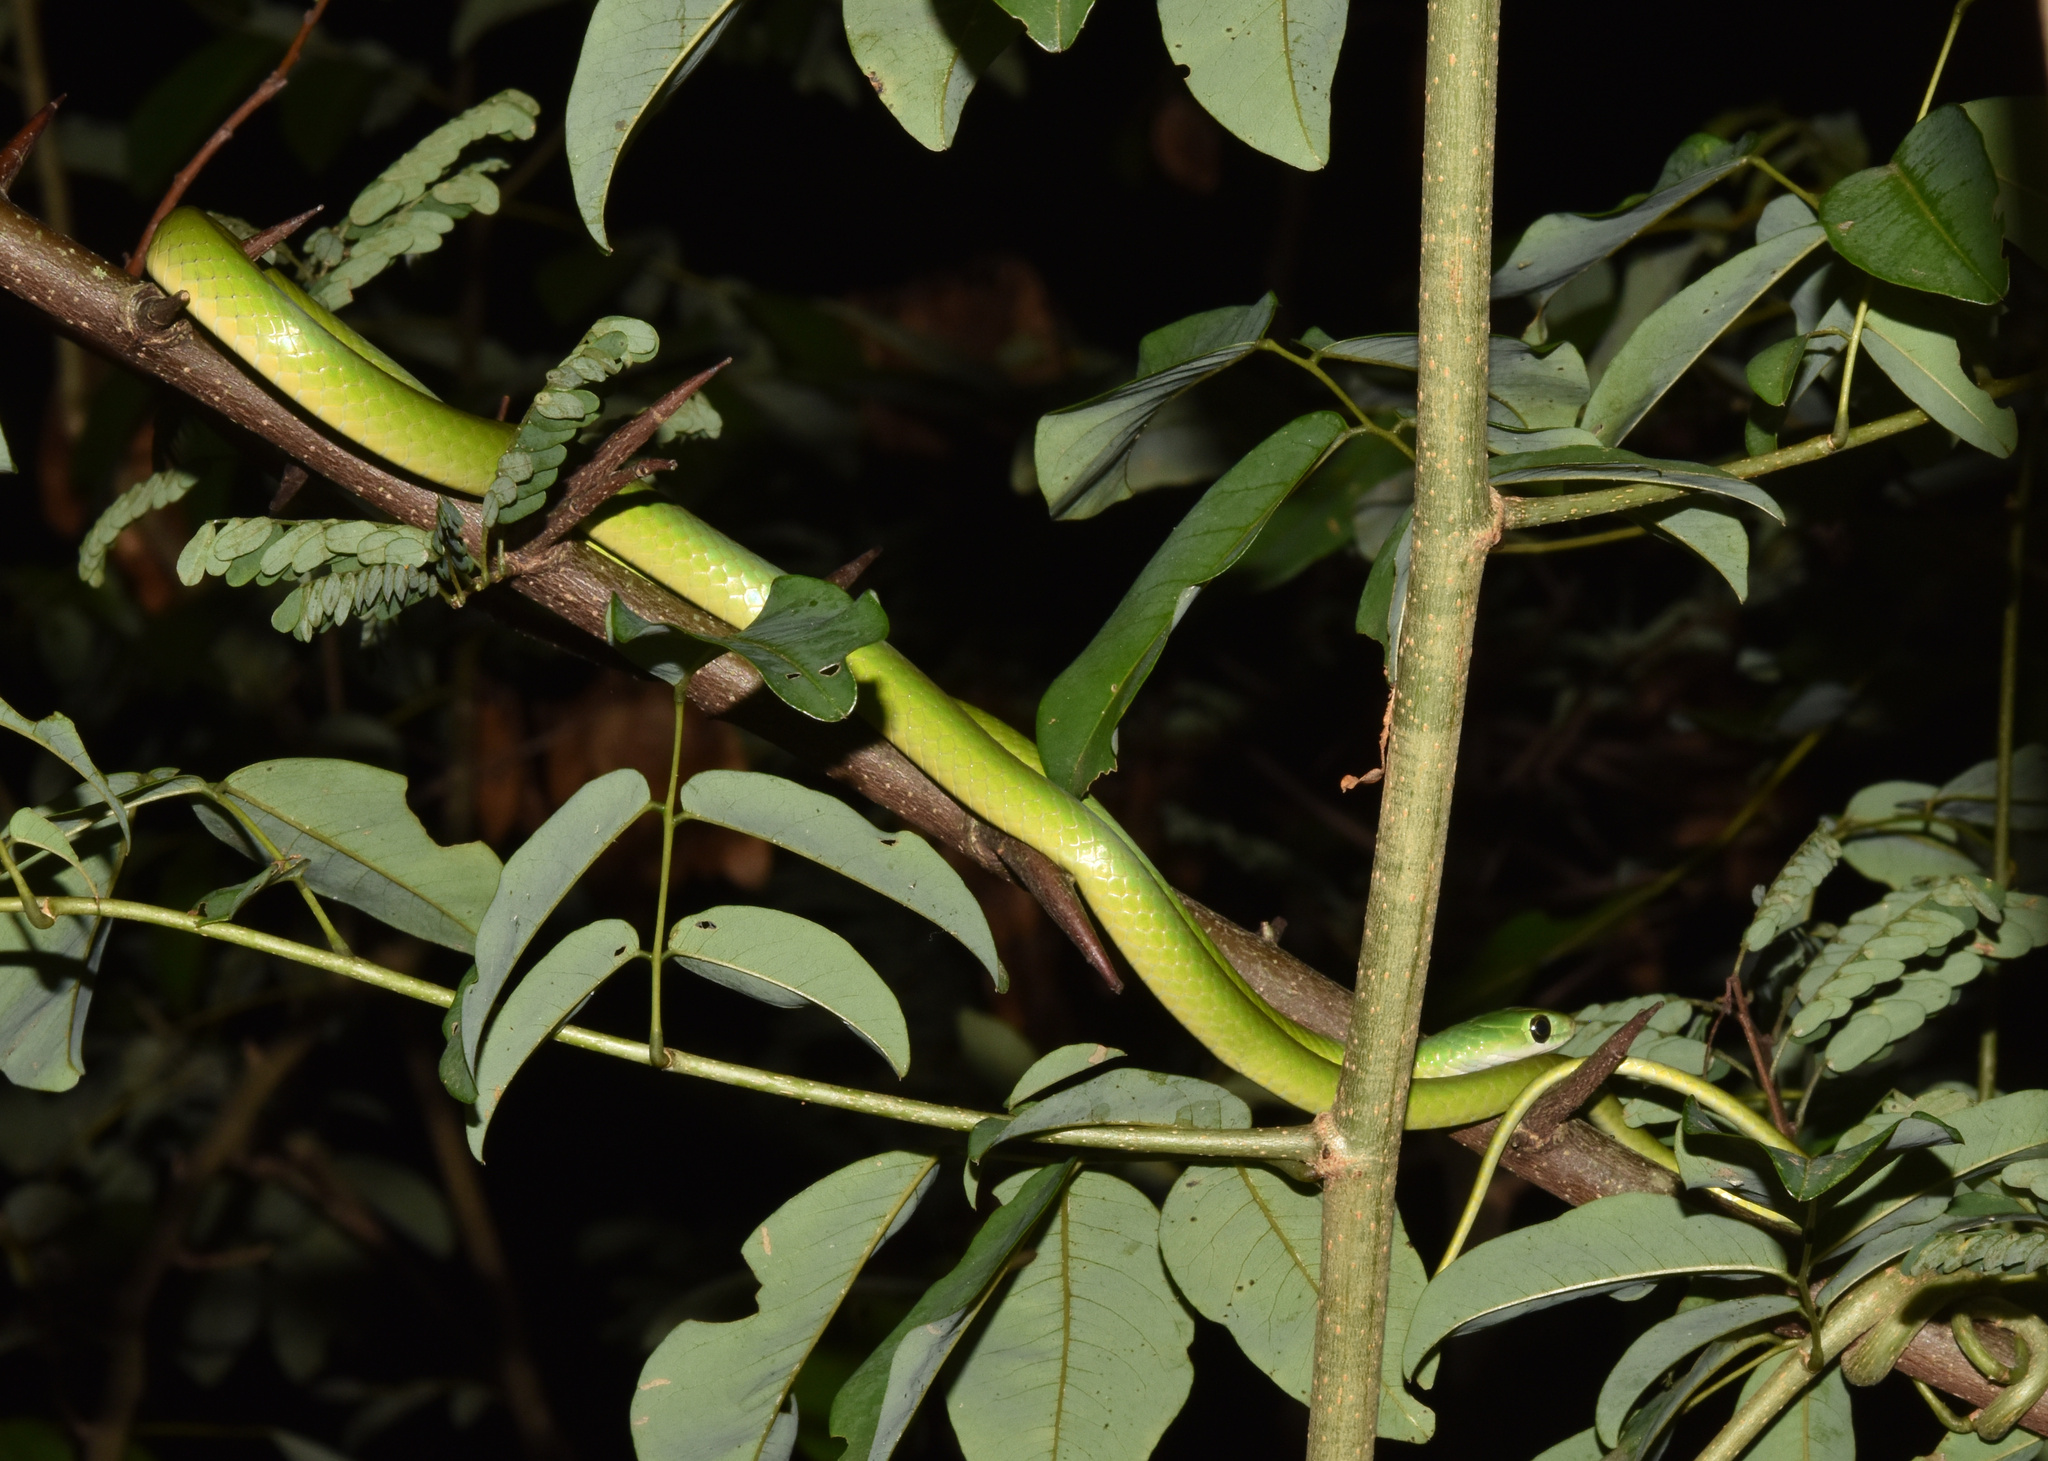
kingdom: Animalia
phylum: Chordata
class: Squamata
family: Colubridae
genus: Philothamnus
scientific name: Philothamnus hoplogaster
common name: Green water snake
